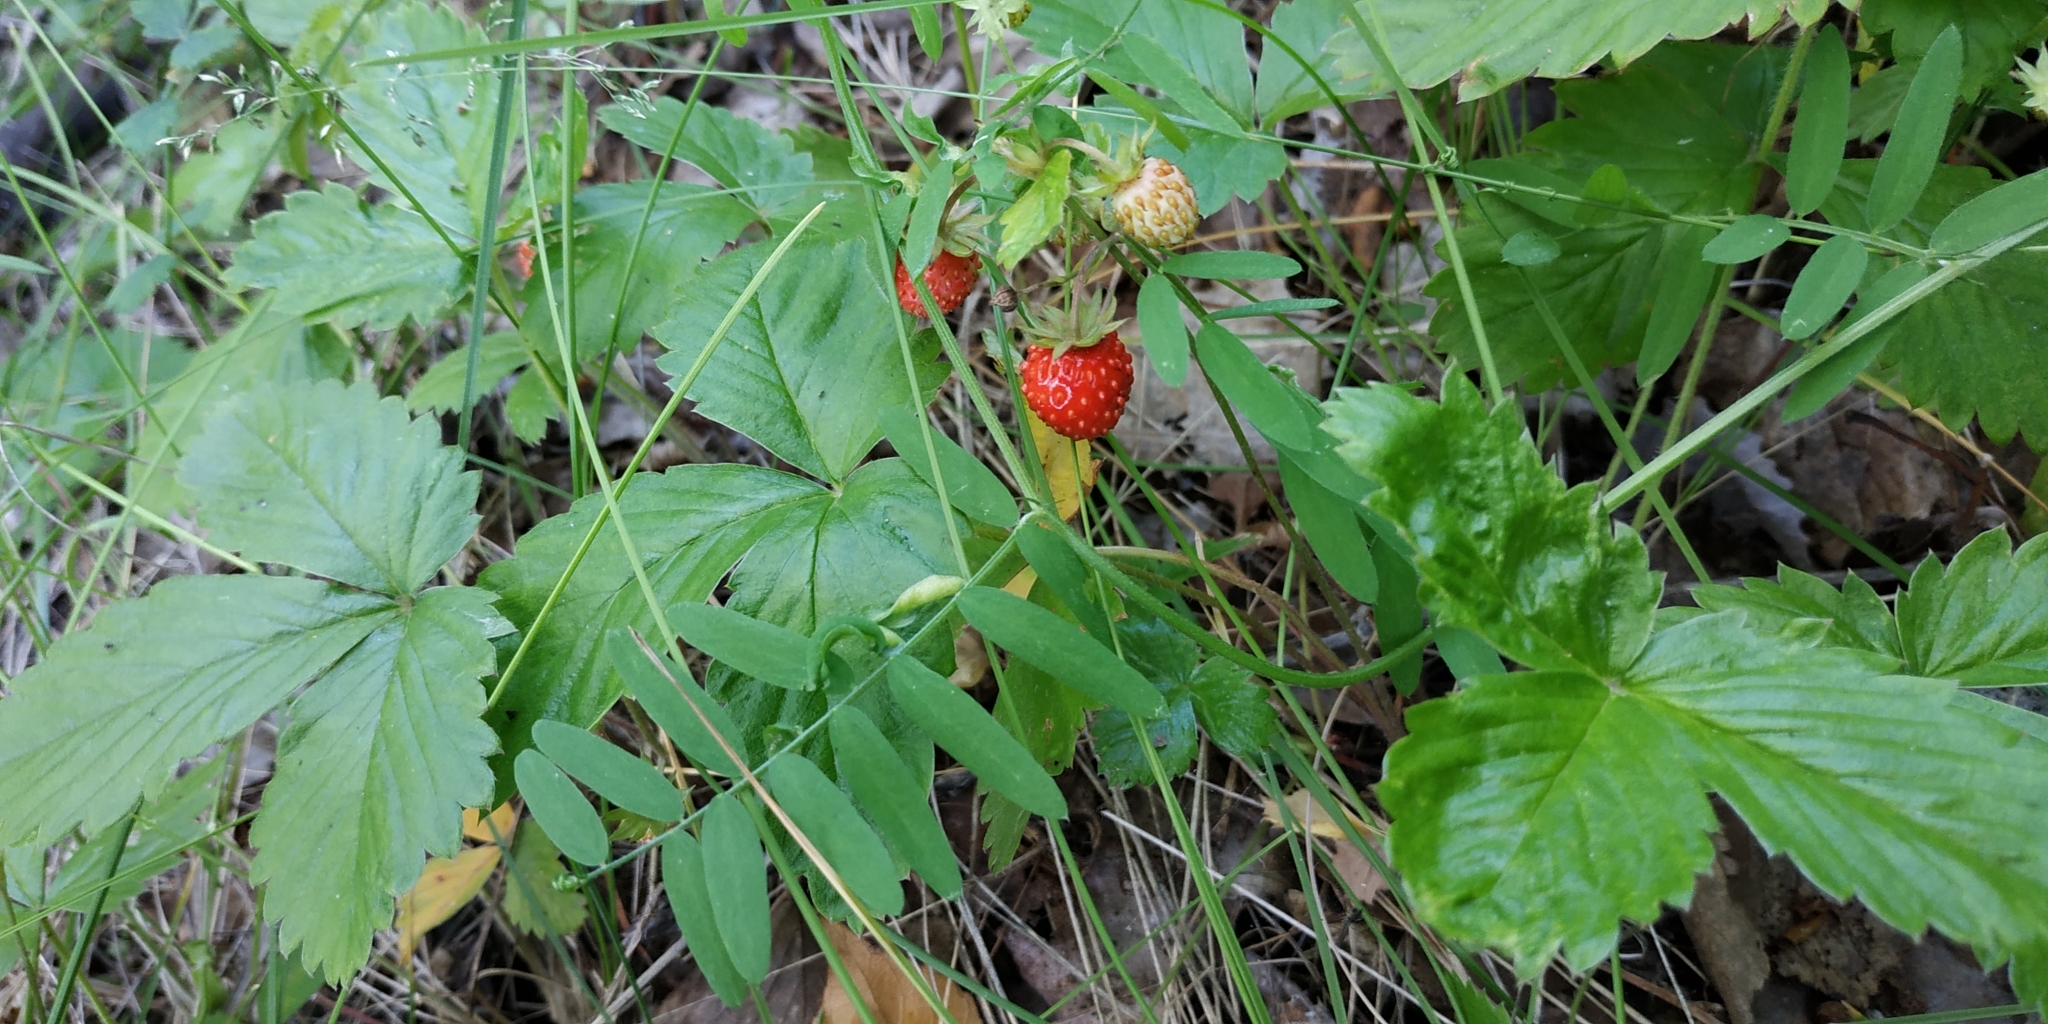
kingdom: Plantae
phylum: Tracheophyta
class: Magnoliopsida
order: Rosales
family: Rosaceae
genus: Fragaria
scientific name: Fragaria vesca
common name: Wild strawberry
